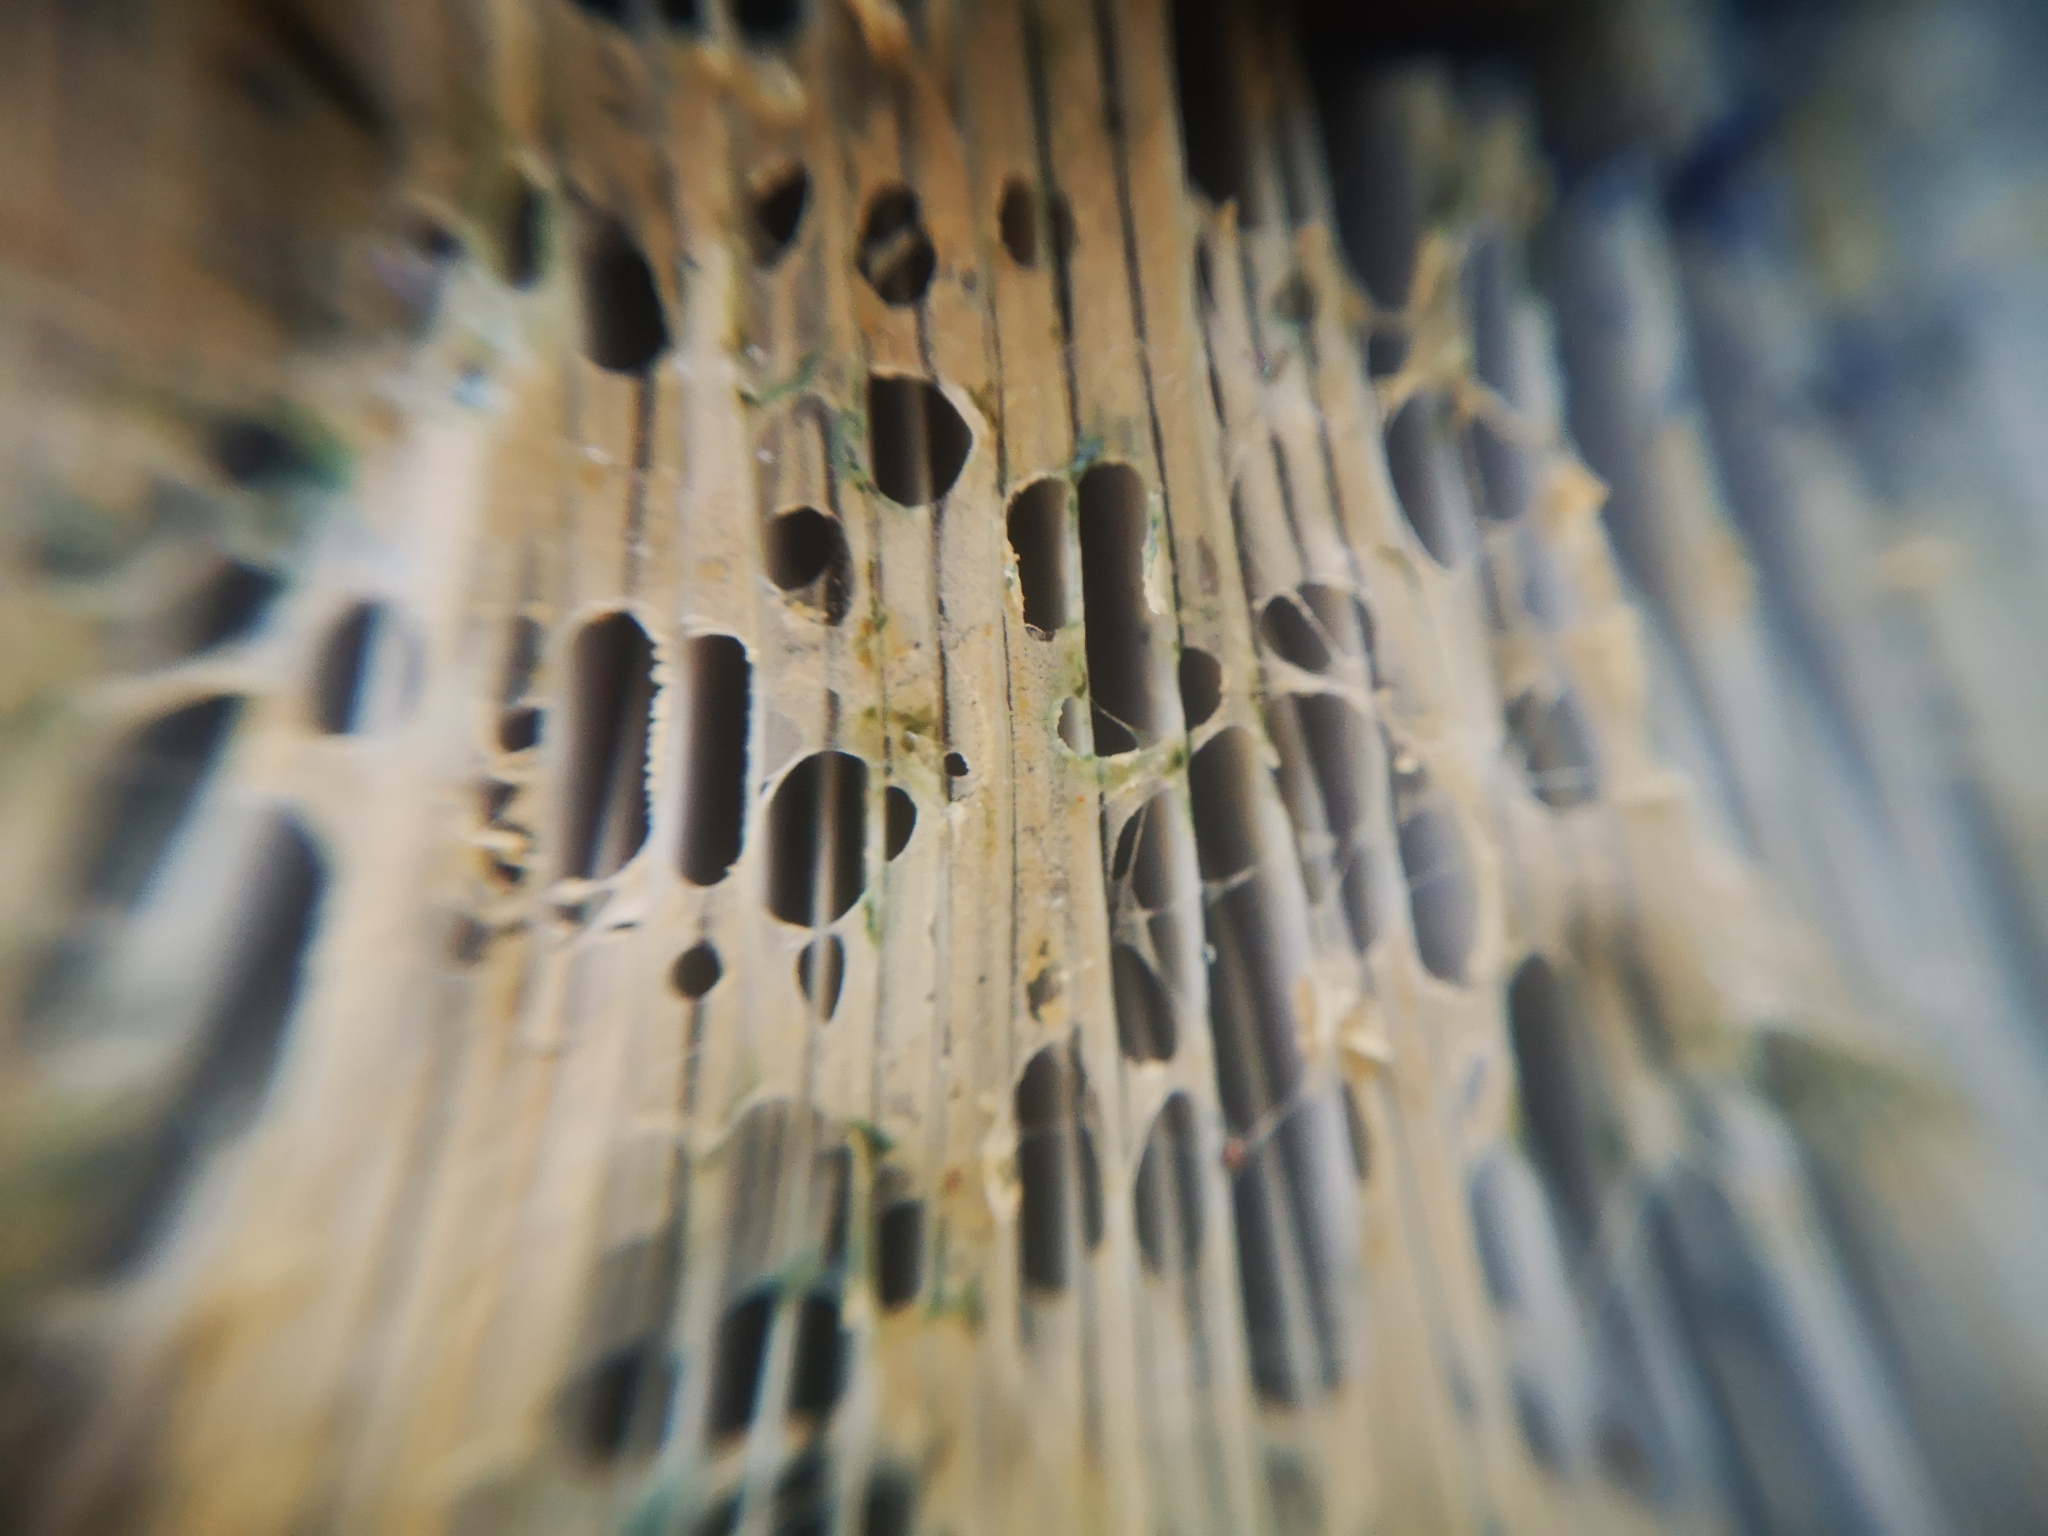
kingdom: Fungi
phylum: Basidiomycota
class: Agaricomycetes
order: Russulales
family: Russulaceae
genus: Lactarius
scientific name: Lactarius indigo
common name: Indigo milk cap
